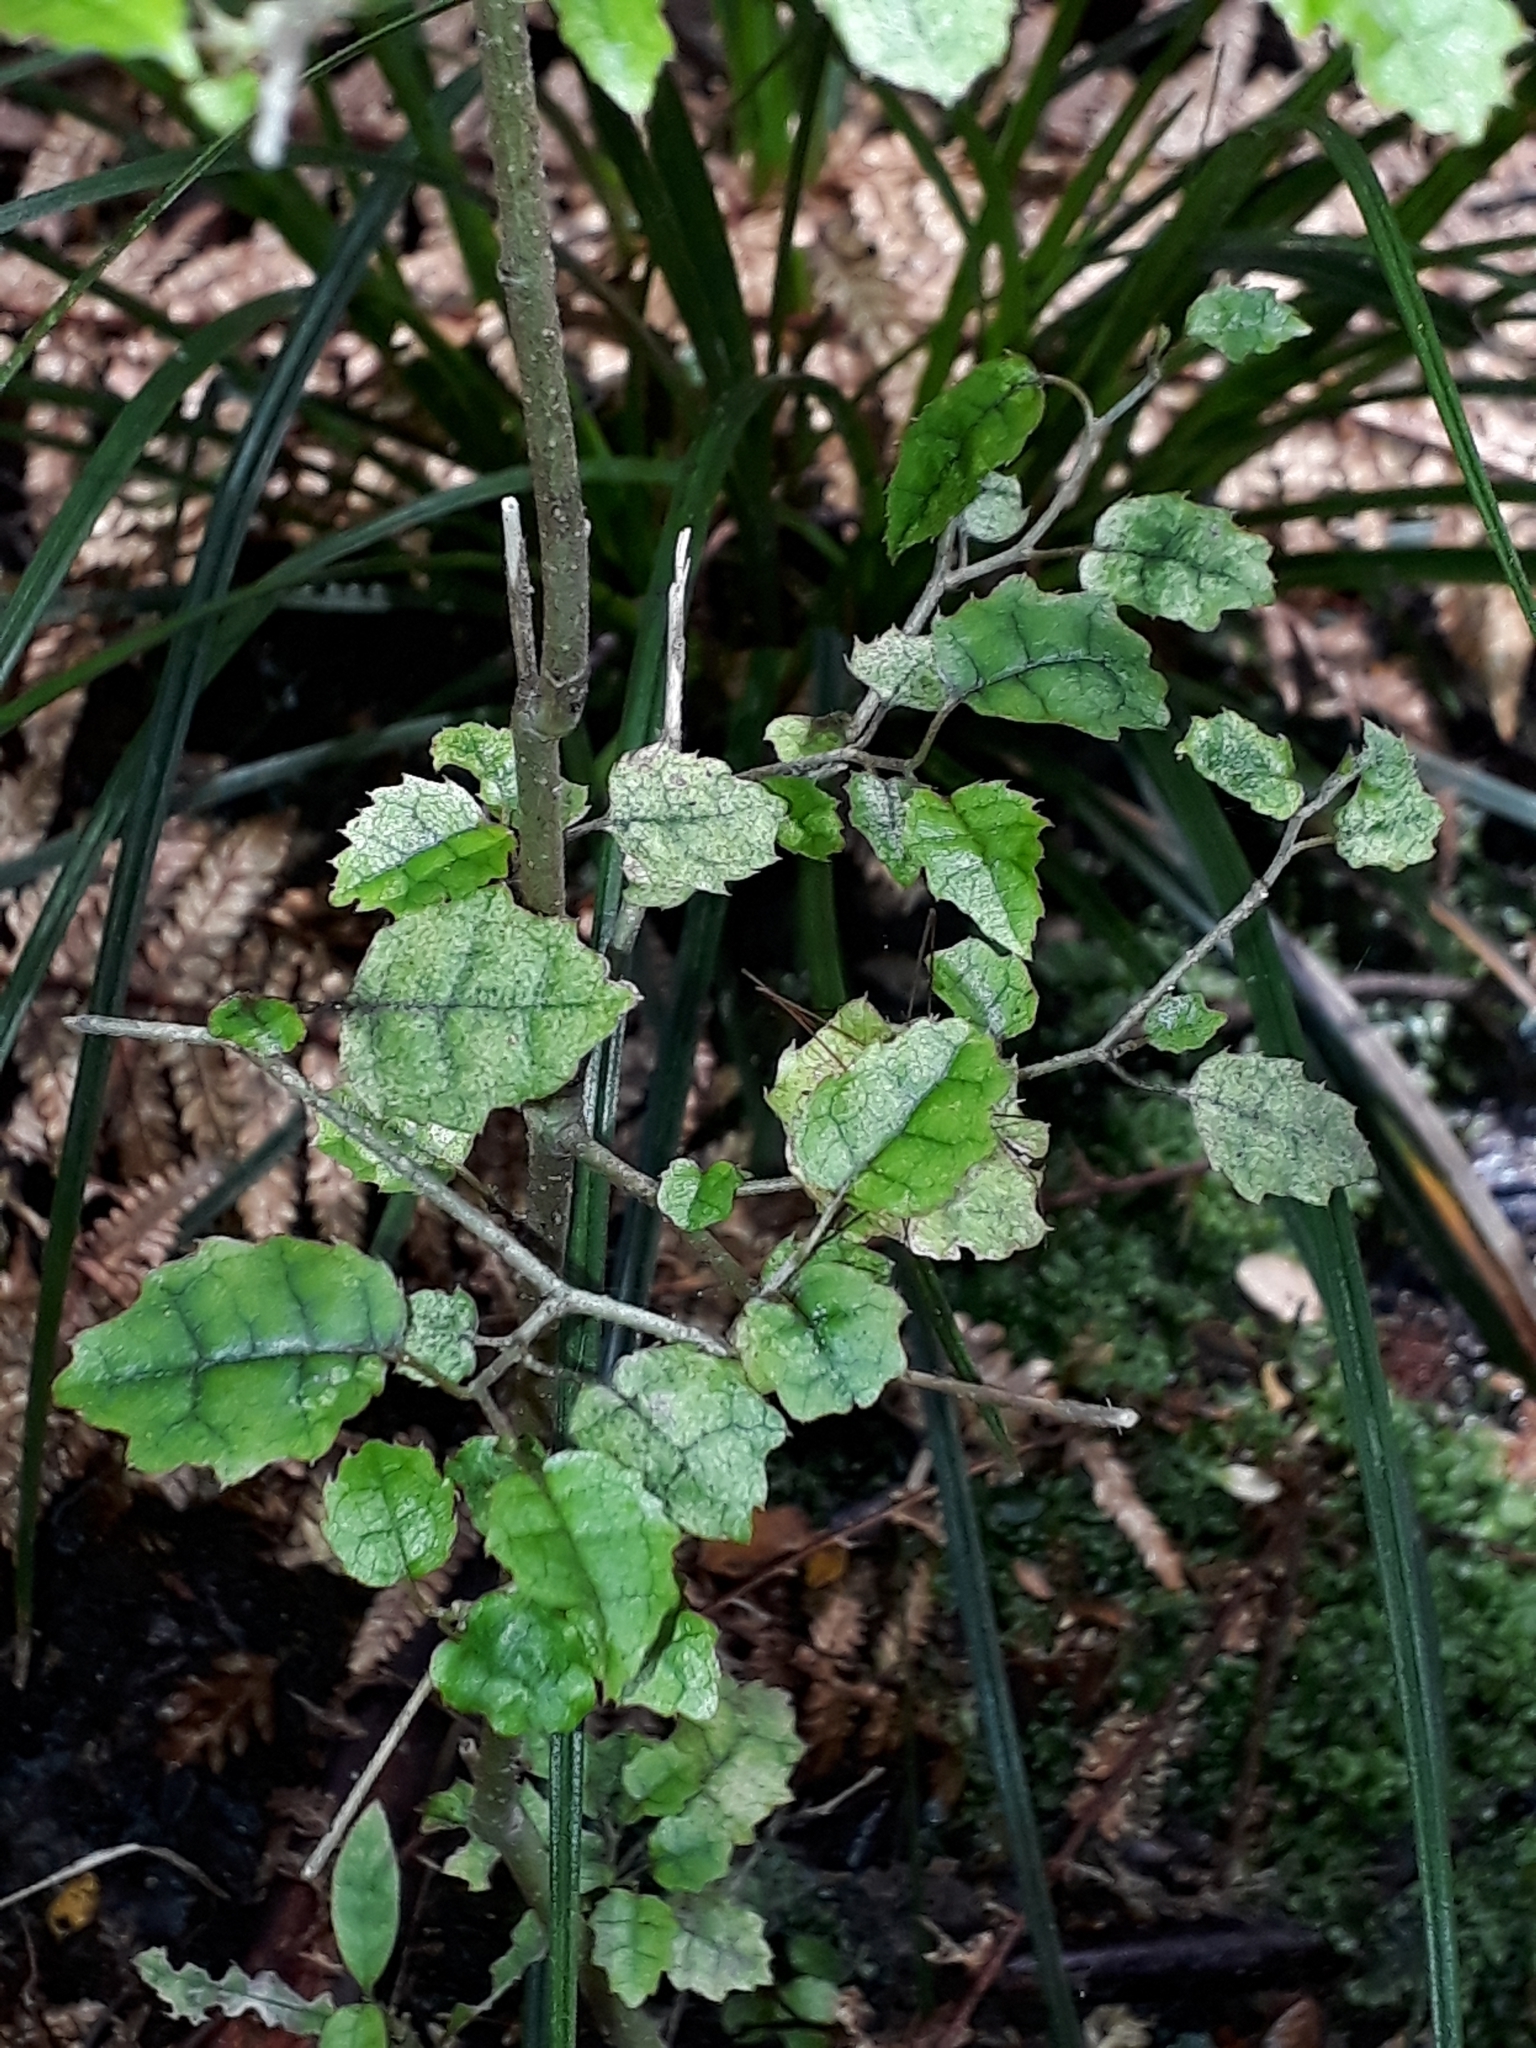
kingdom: Plantae
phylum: Tracheophyta
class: Magnoliopsida
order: Asterales
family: Rousseaceae
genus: Carpodetus
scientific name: Carpodetus serratus
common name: White mapau
